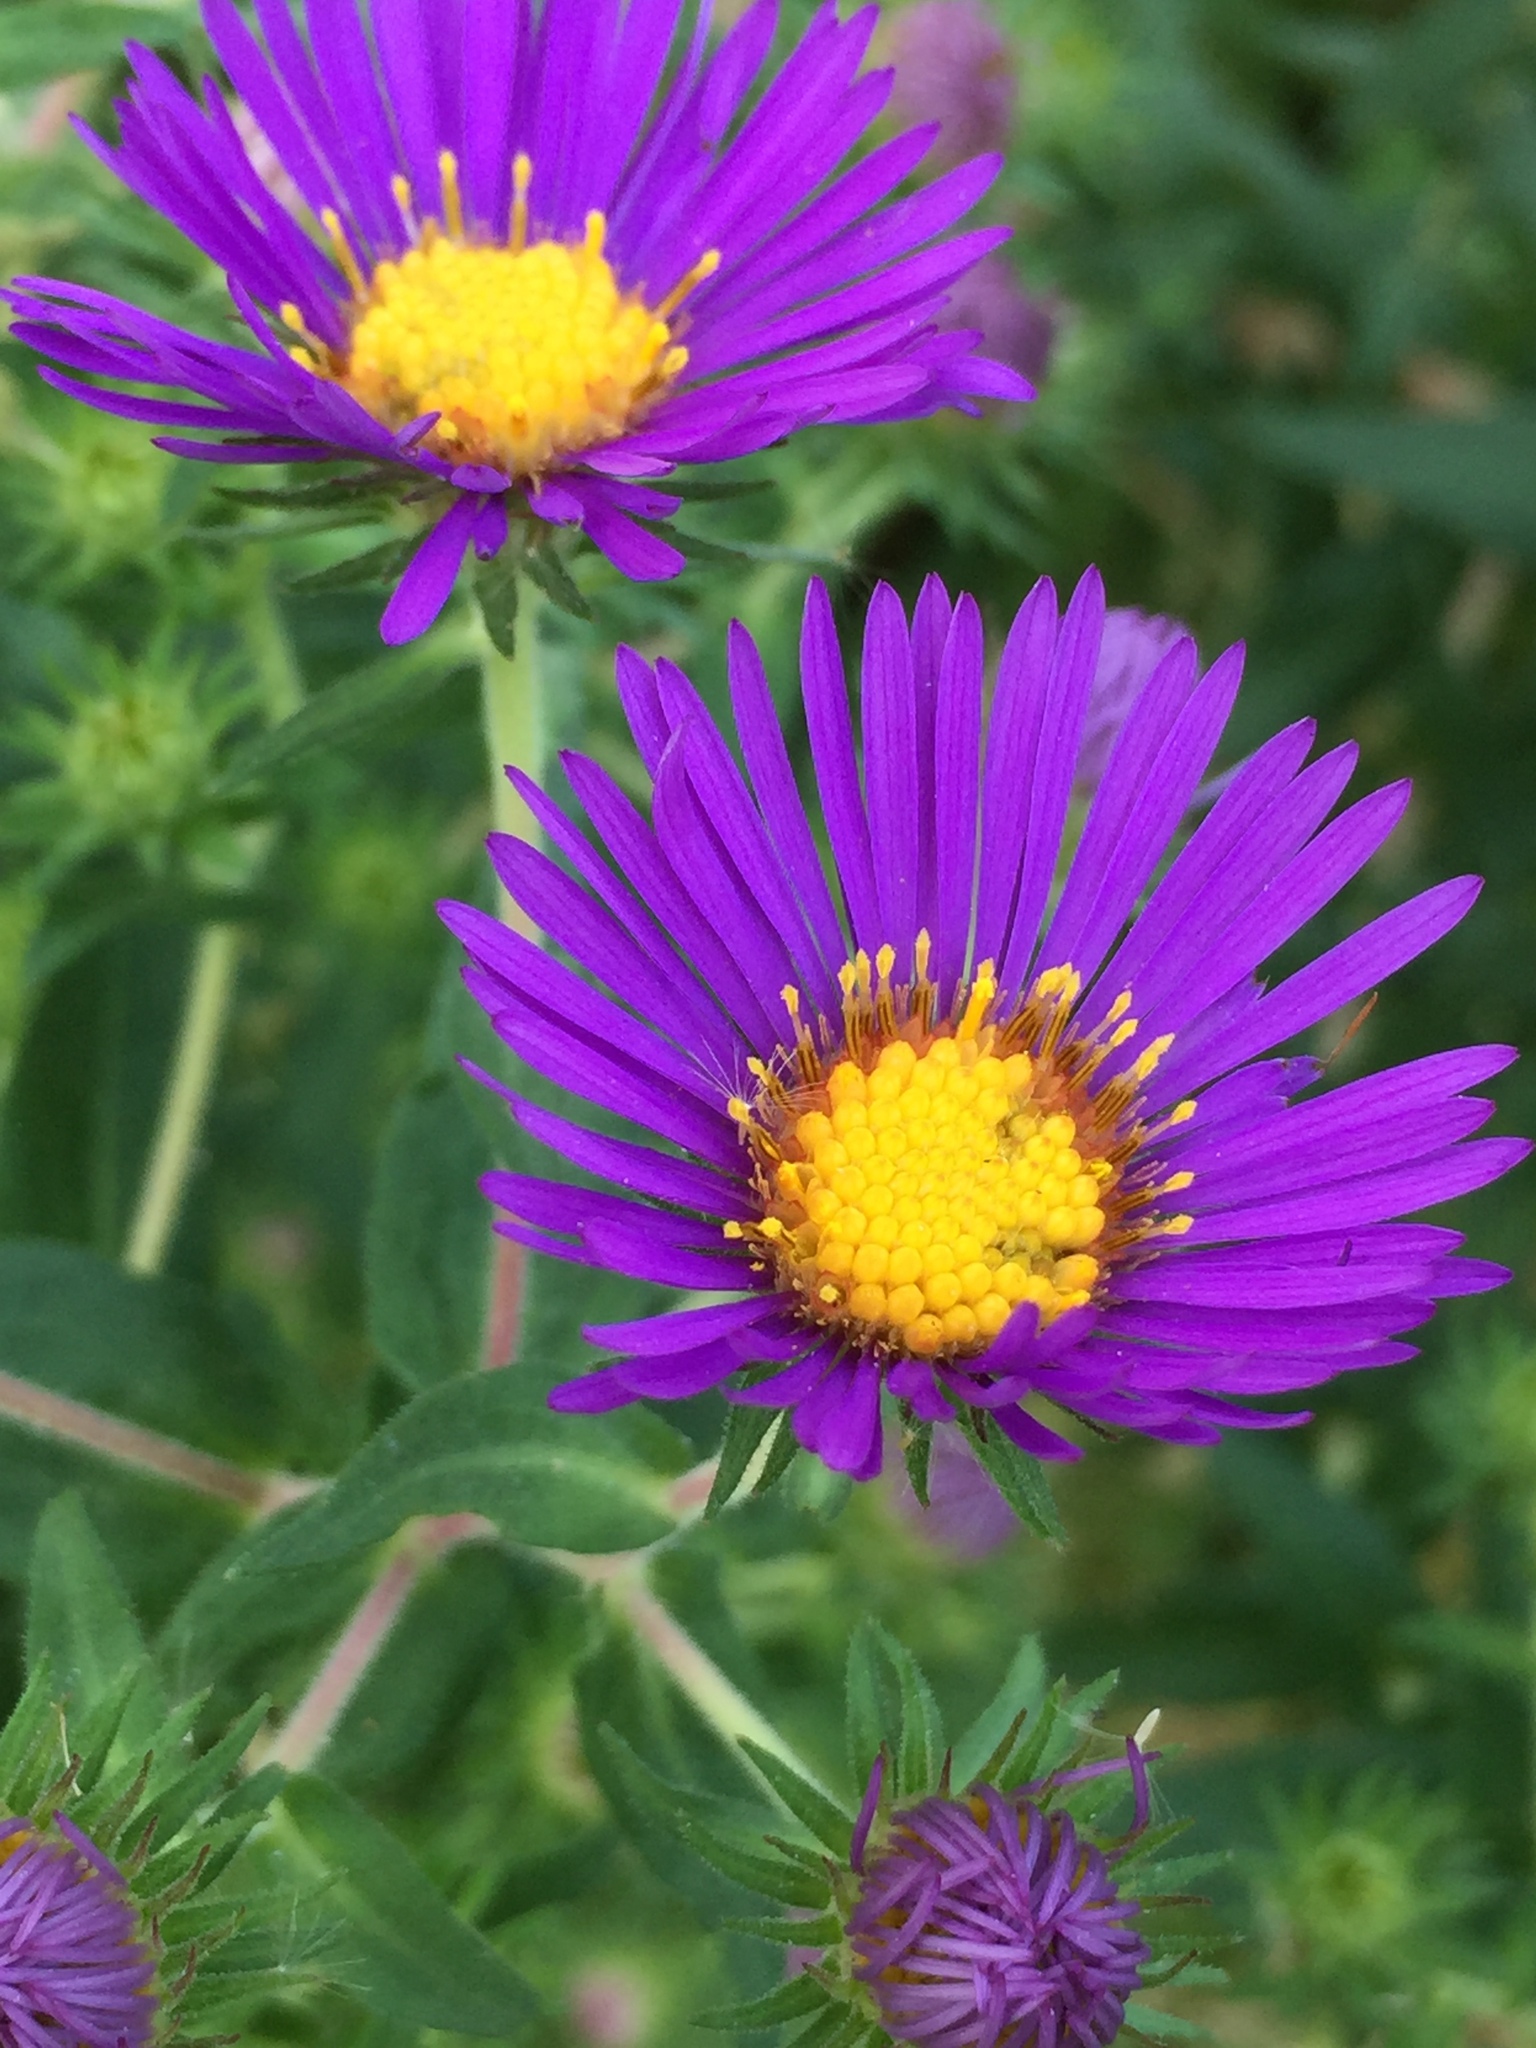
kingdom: Plantae
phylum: Tracheophyta
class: Magnoliopsida
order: Asterales
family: Asteraceae
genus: Symphyotrichum
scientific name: Symphyotrichum novae-angliae
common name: Michaelmas daisy
